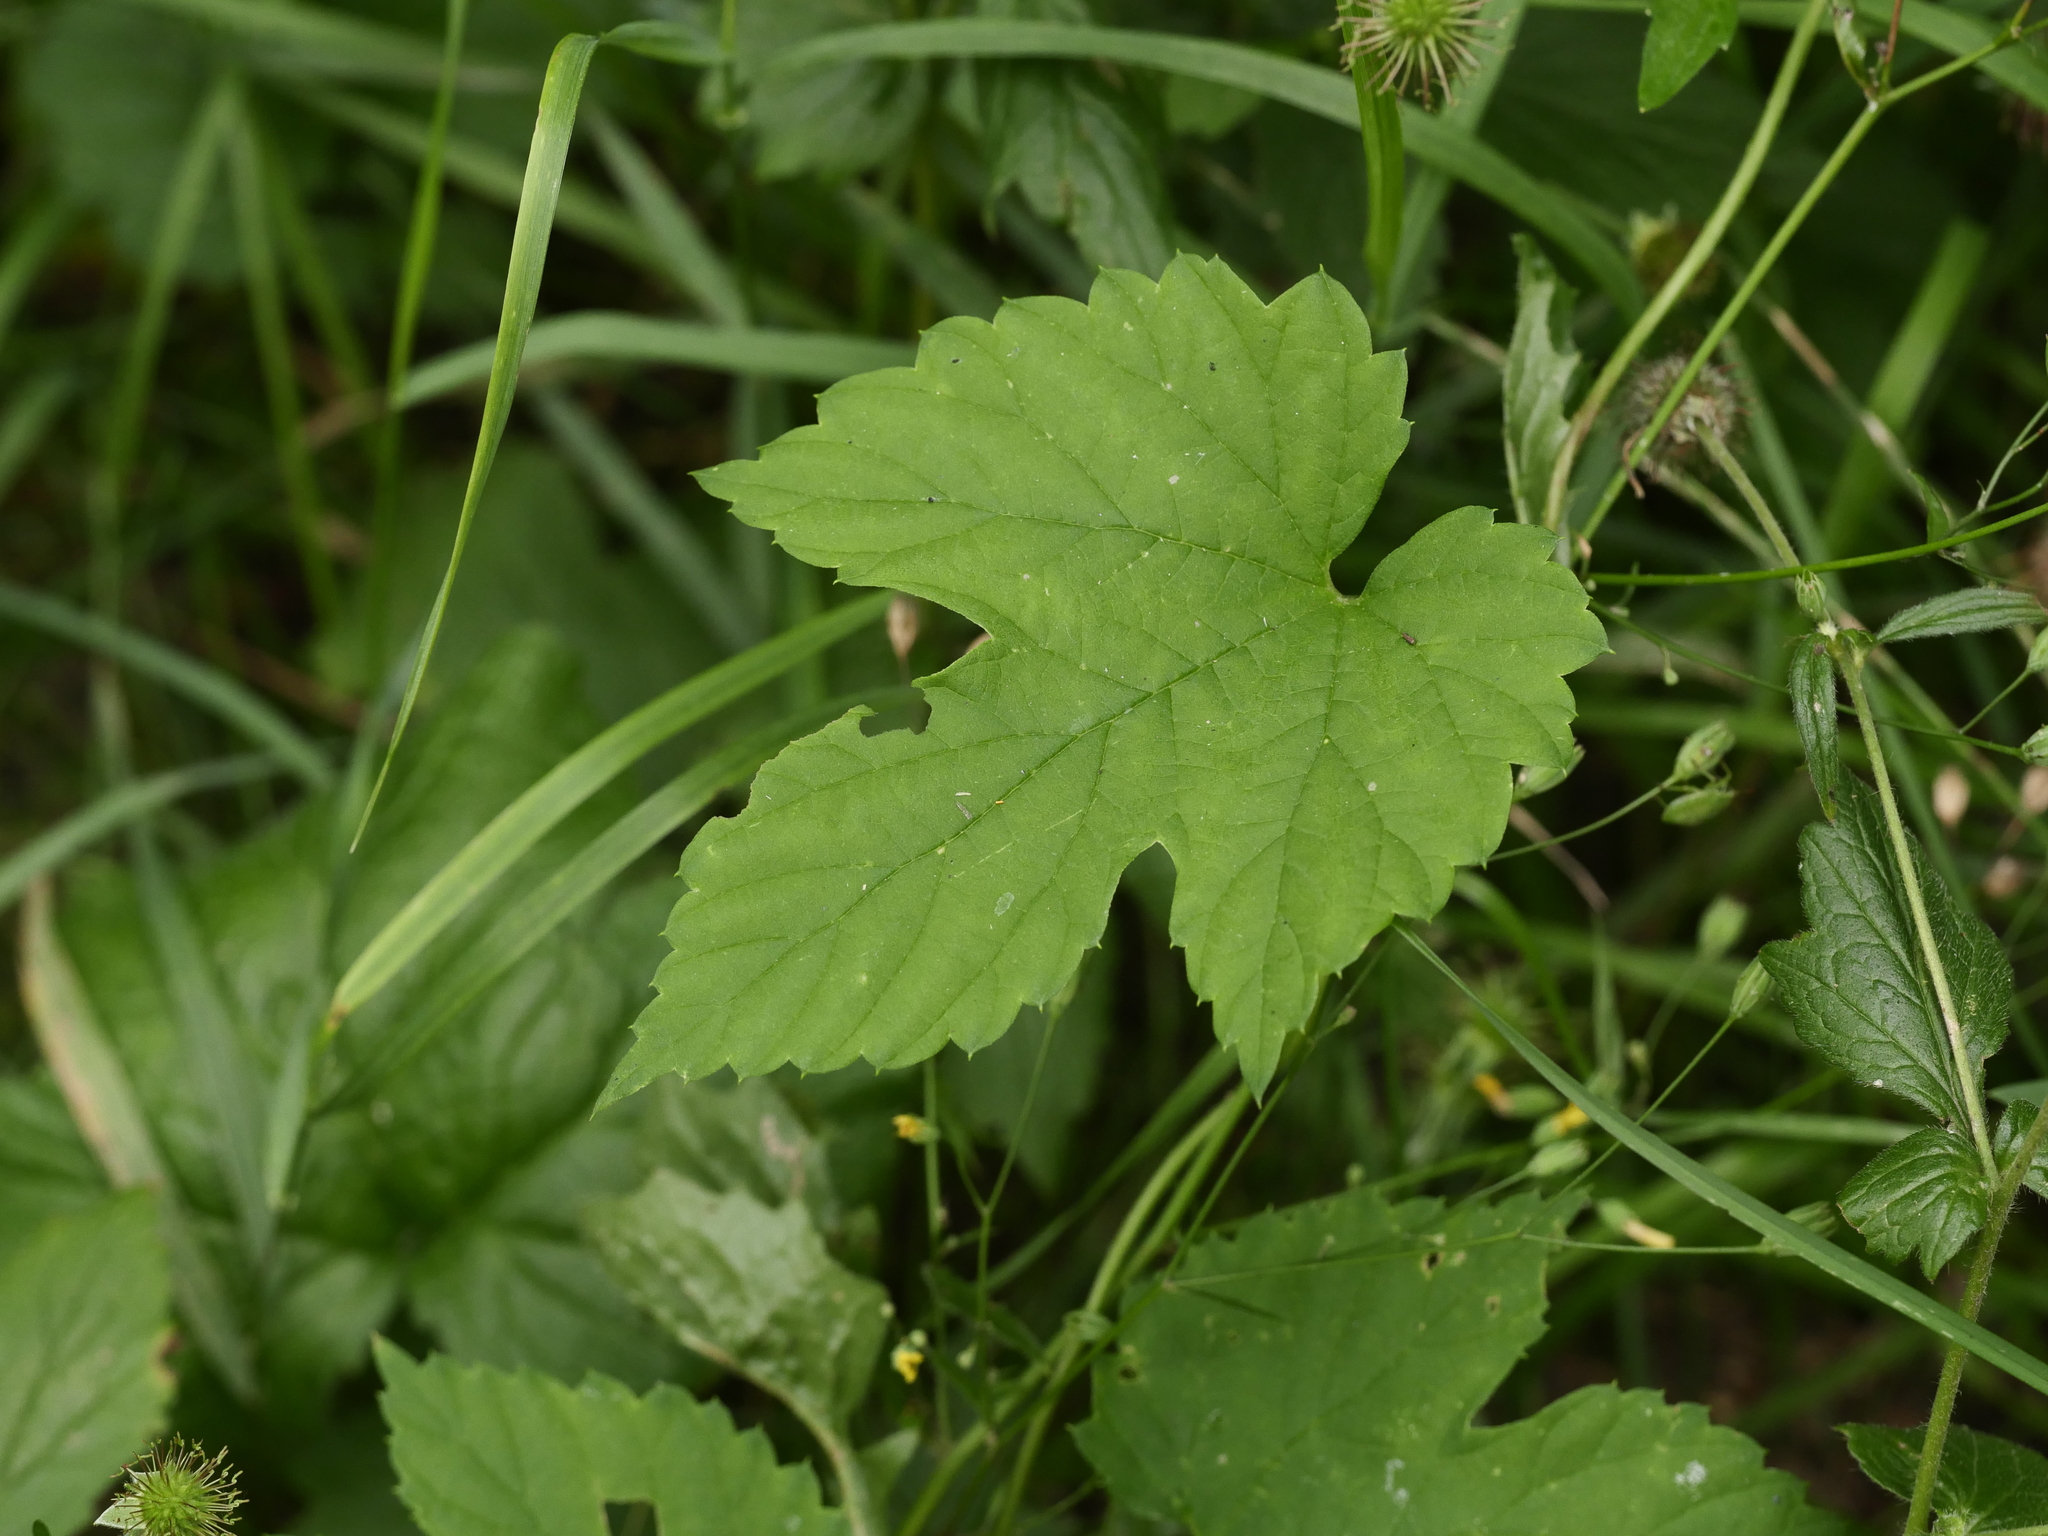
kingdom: Plantae
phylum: Tracheophyta
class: Magnoliopsida
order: Rosales
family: Cannabaceae
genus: Humulus
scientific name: Humulus lupulus
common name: Hop
